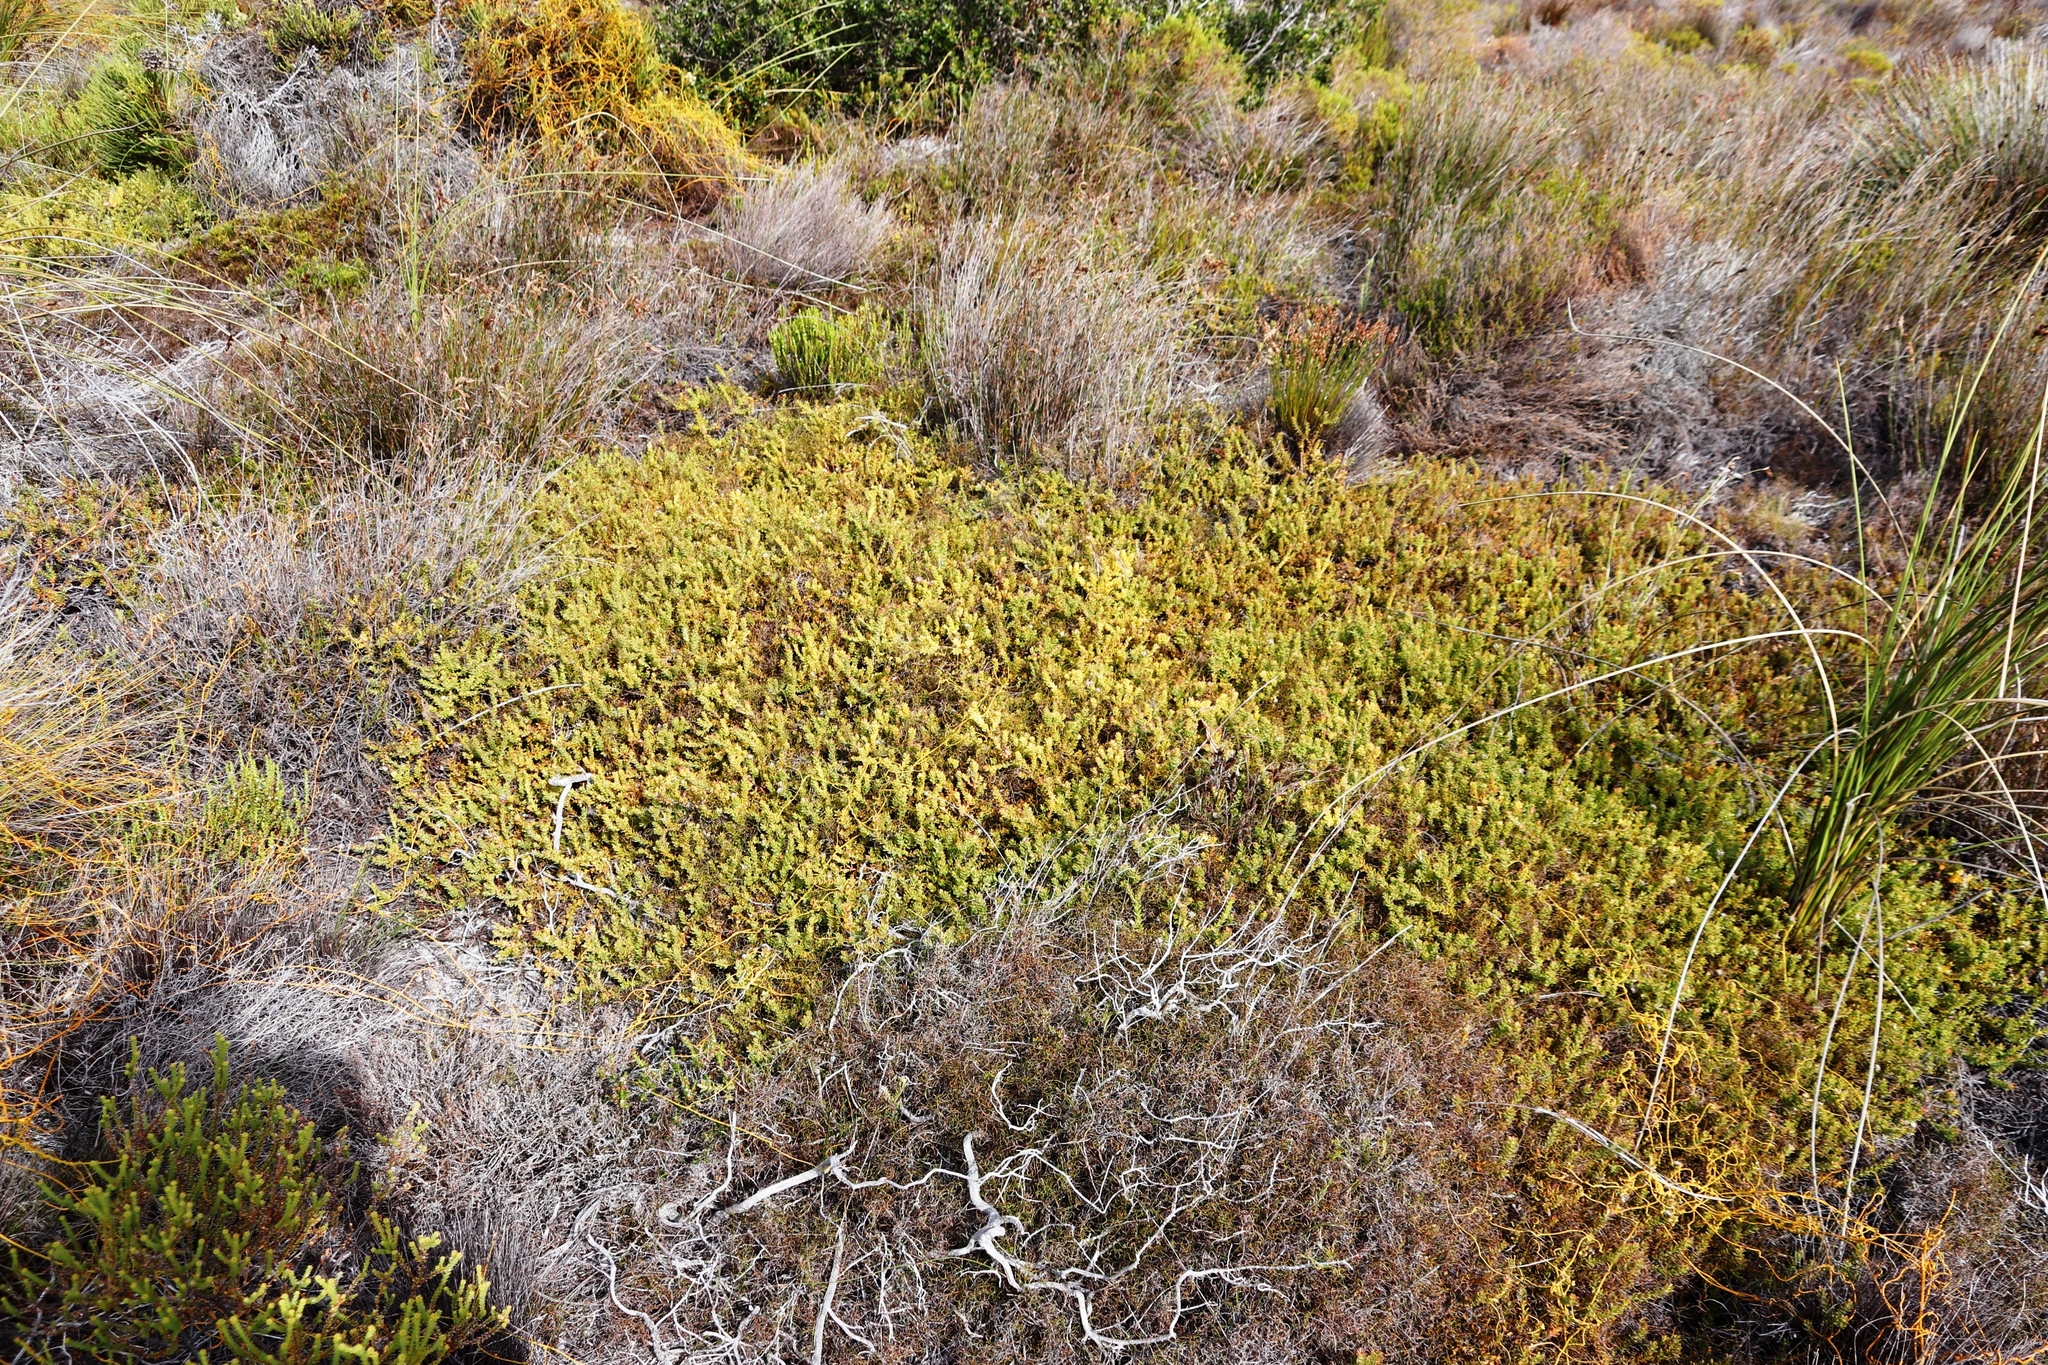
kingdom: Plantae
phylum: Tracheophyta
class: Magnoliopsida
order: Proteales
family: Proteaceae
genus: Diastella
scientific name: Diastella divaricata
